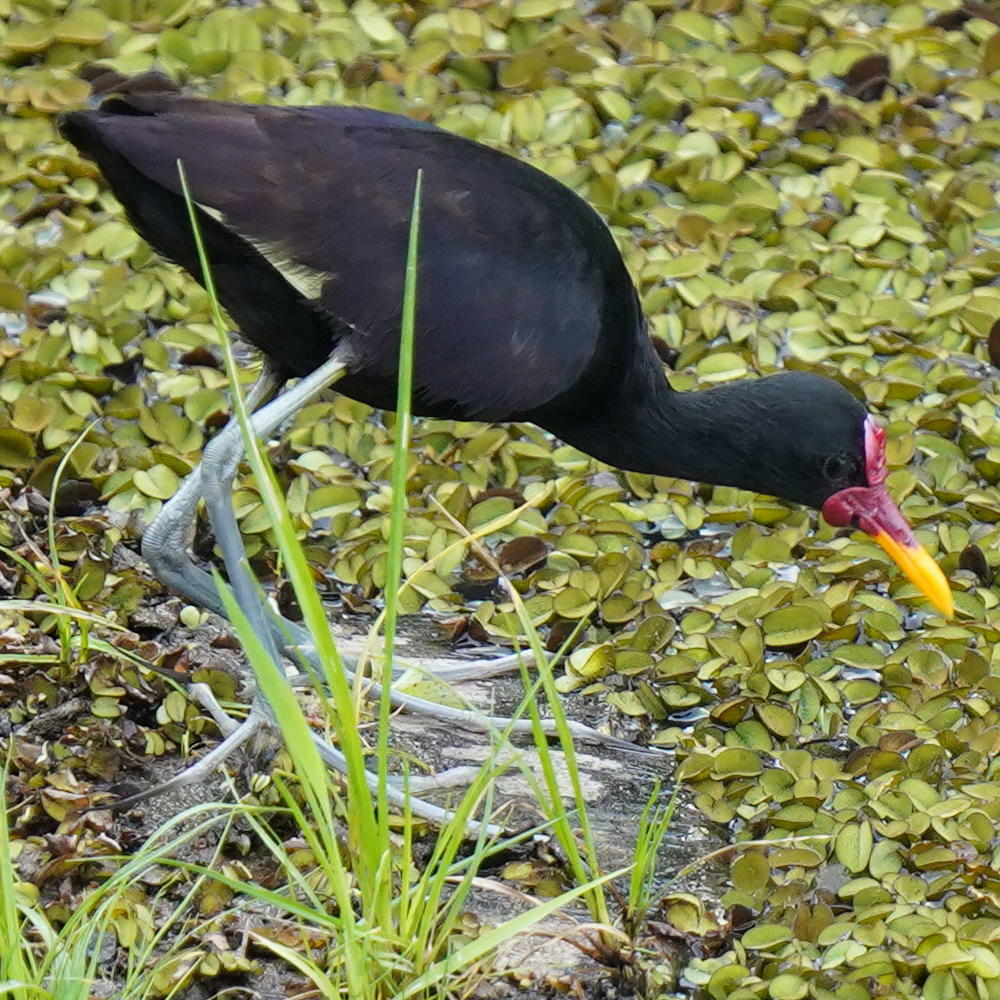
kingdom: Animalia
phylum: Chordata
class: Aves
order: Charadriiformes
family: Jacanidae
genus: Jacana
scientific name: Jacana jacana
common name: Wattled jacana
